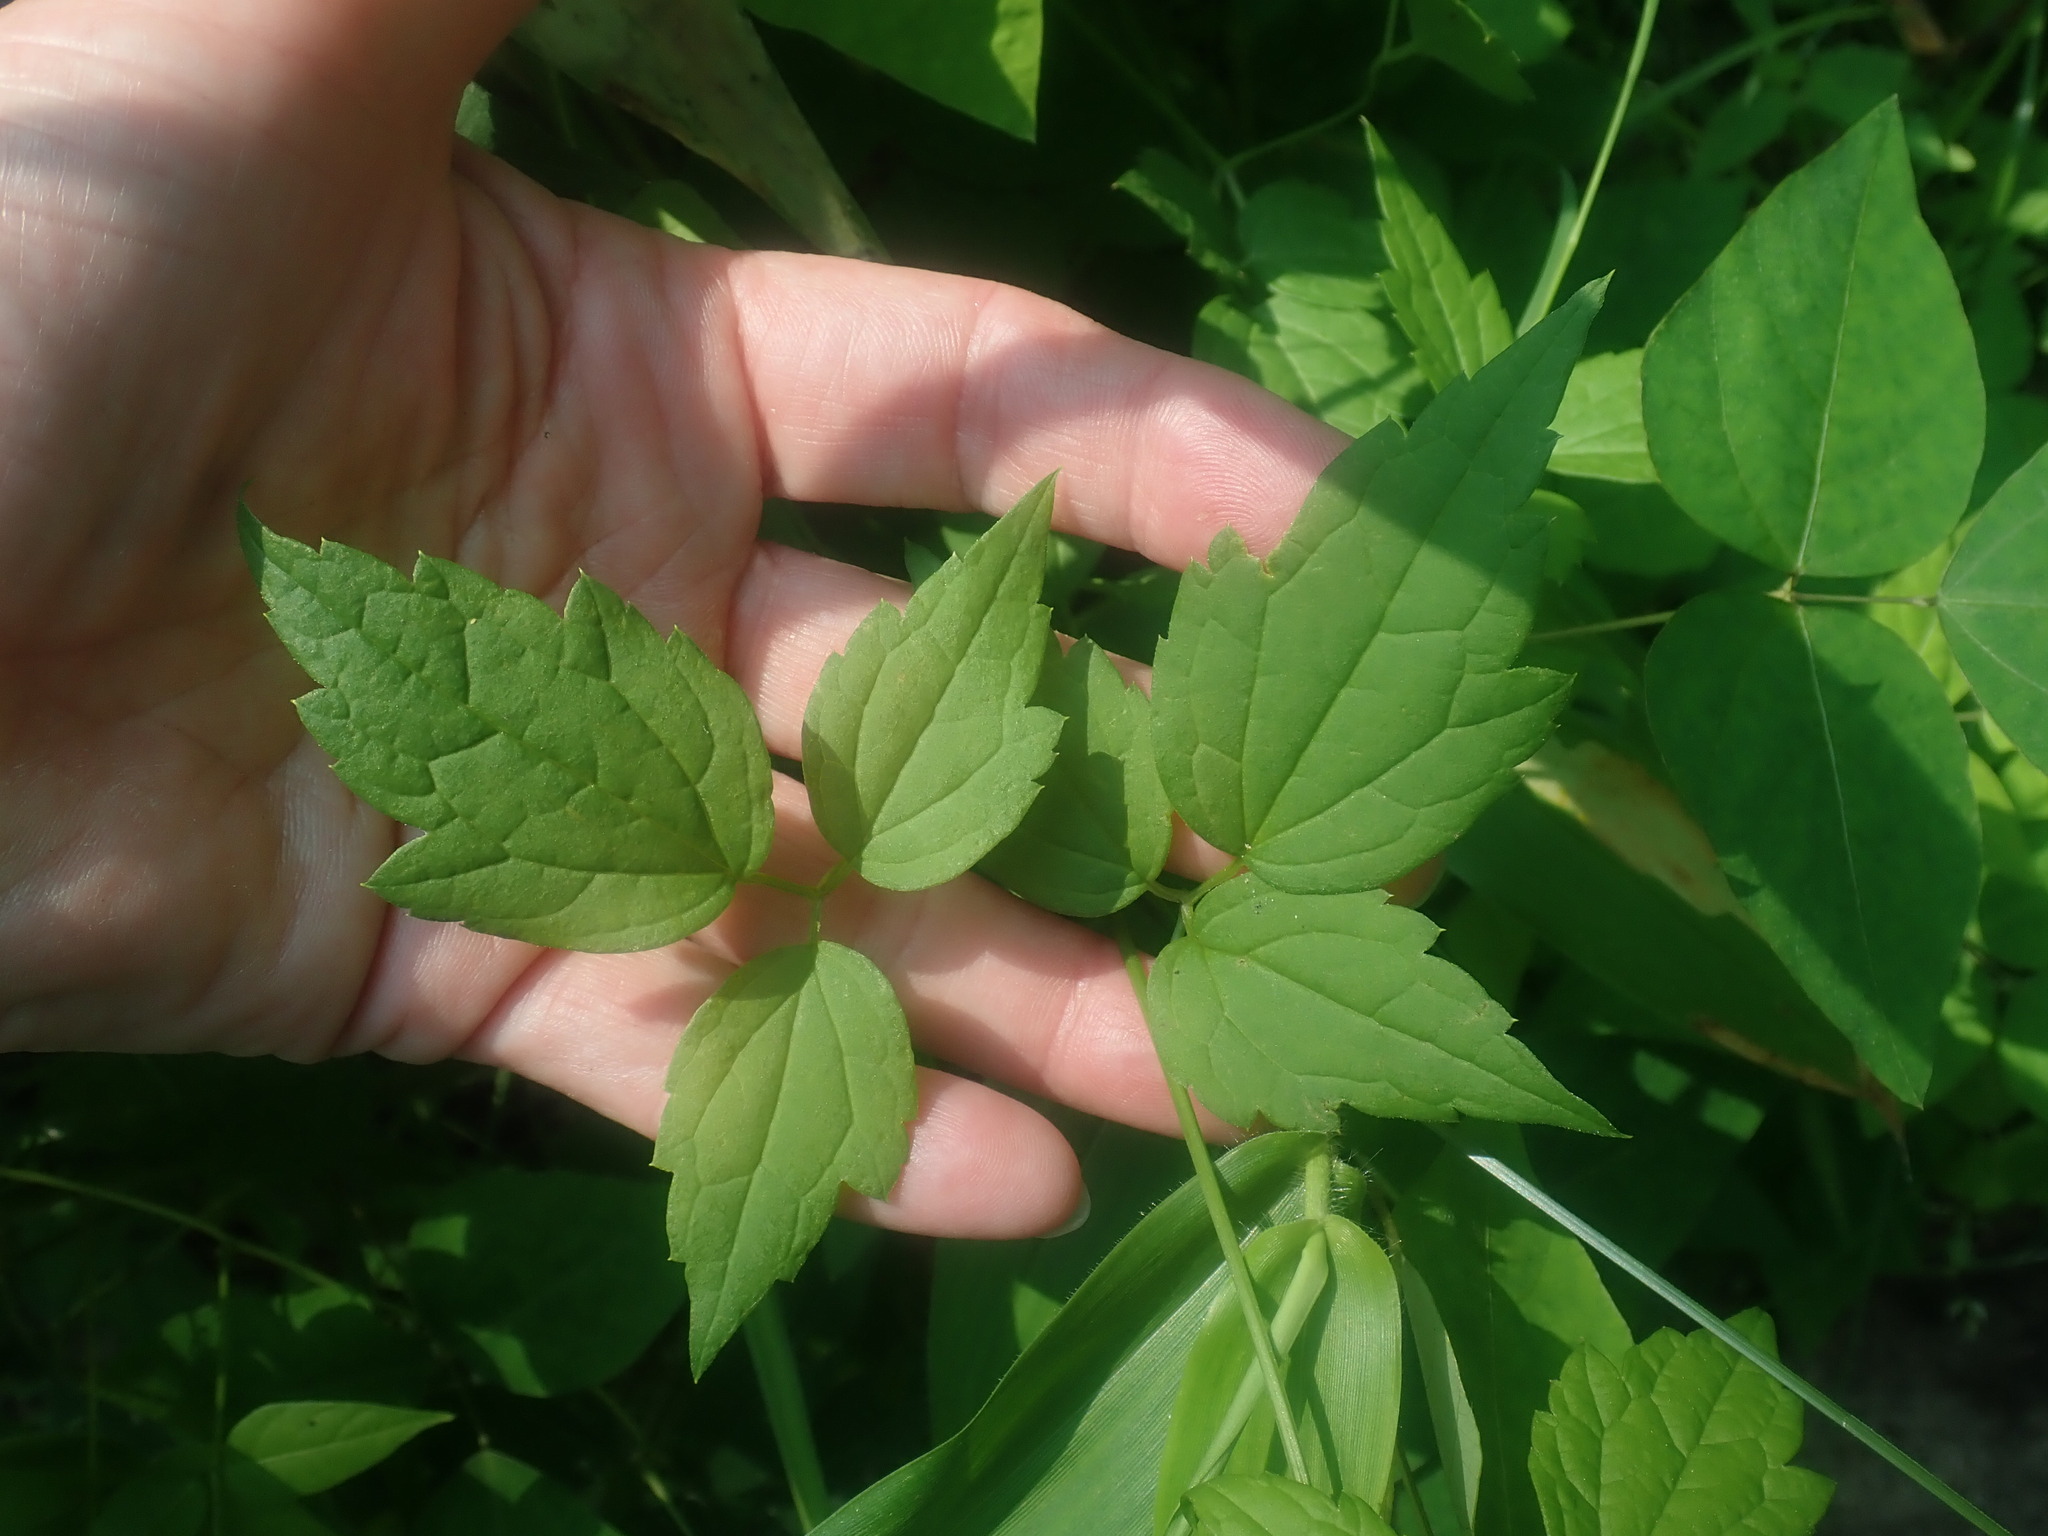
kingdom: Plantae
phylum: Tracheophyta
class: Magnoliopsida
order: Ranunculales
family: Ranunculaceae
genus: Clematis
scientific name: Clematis virginiana
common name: Virgin's-bower
